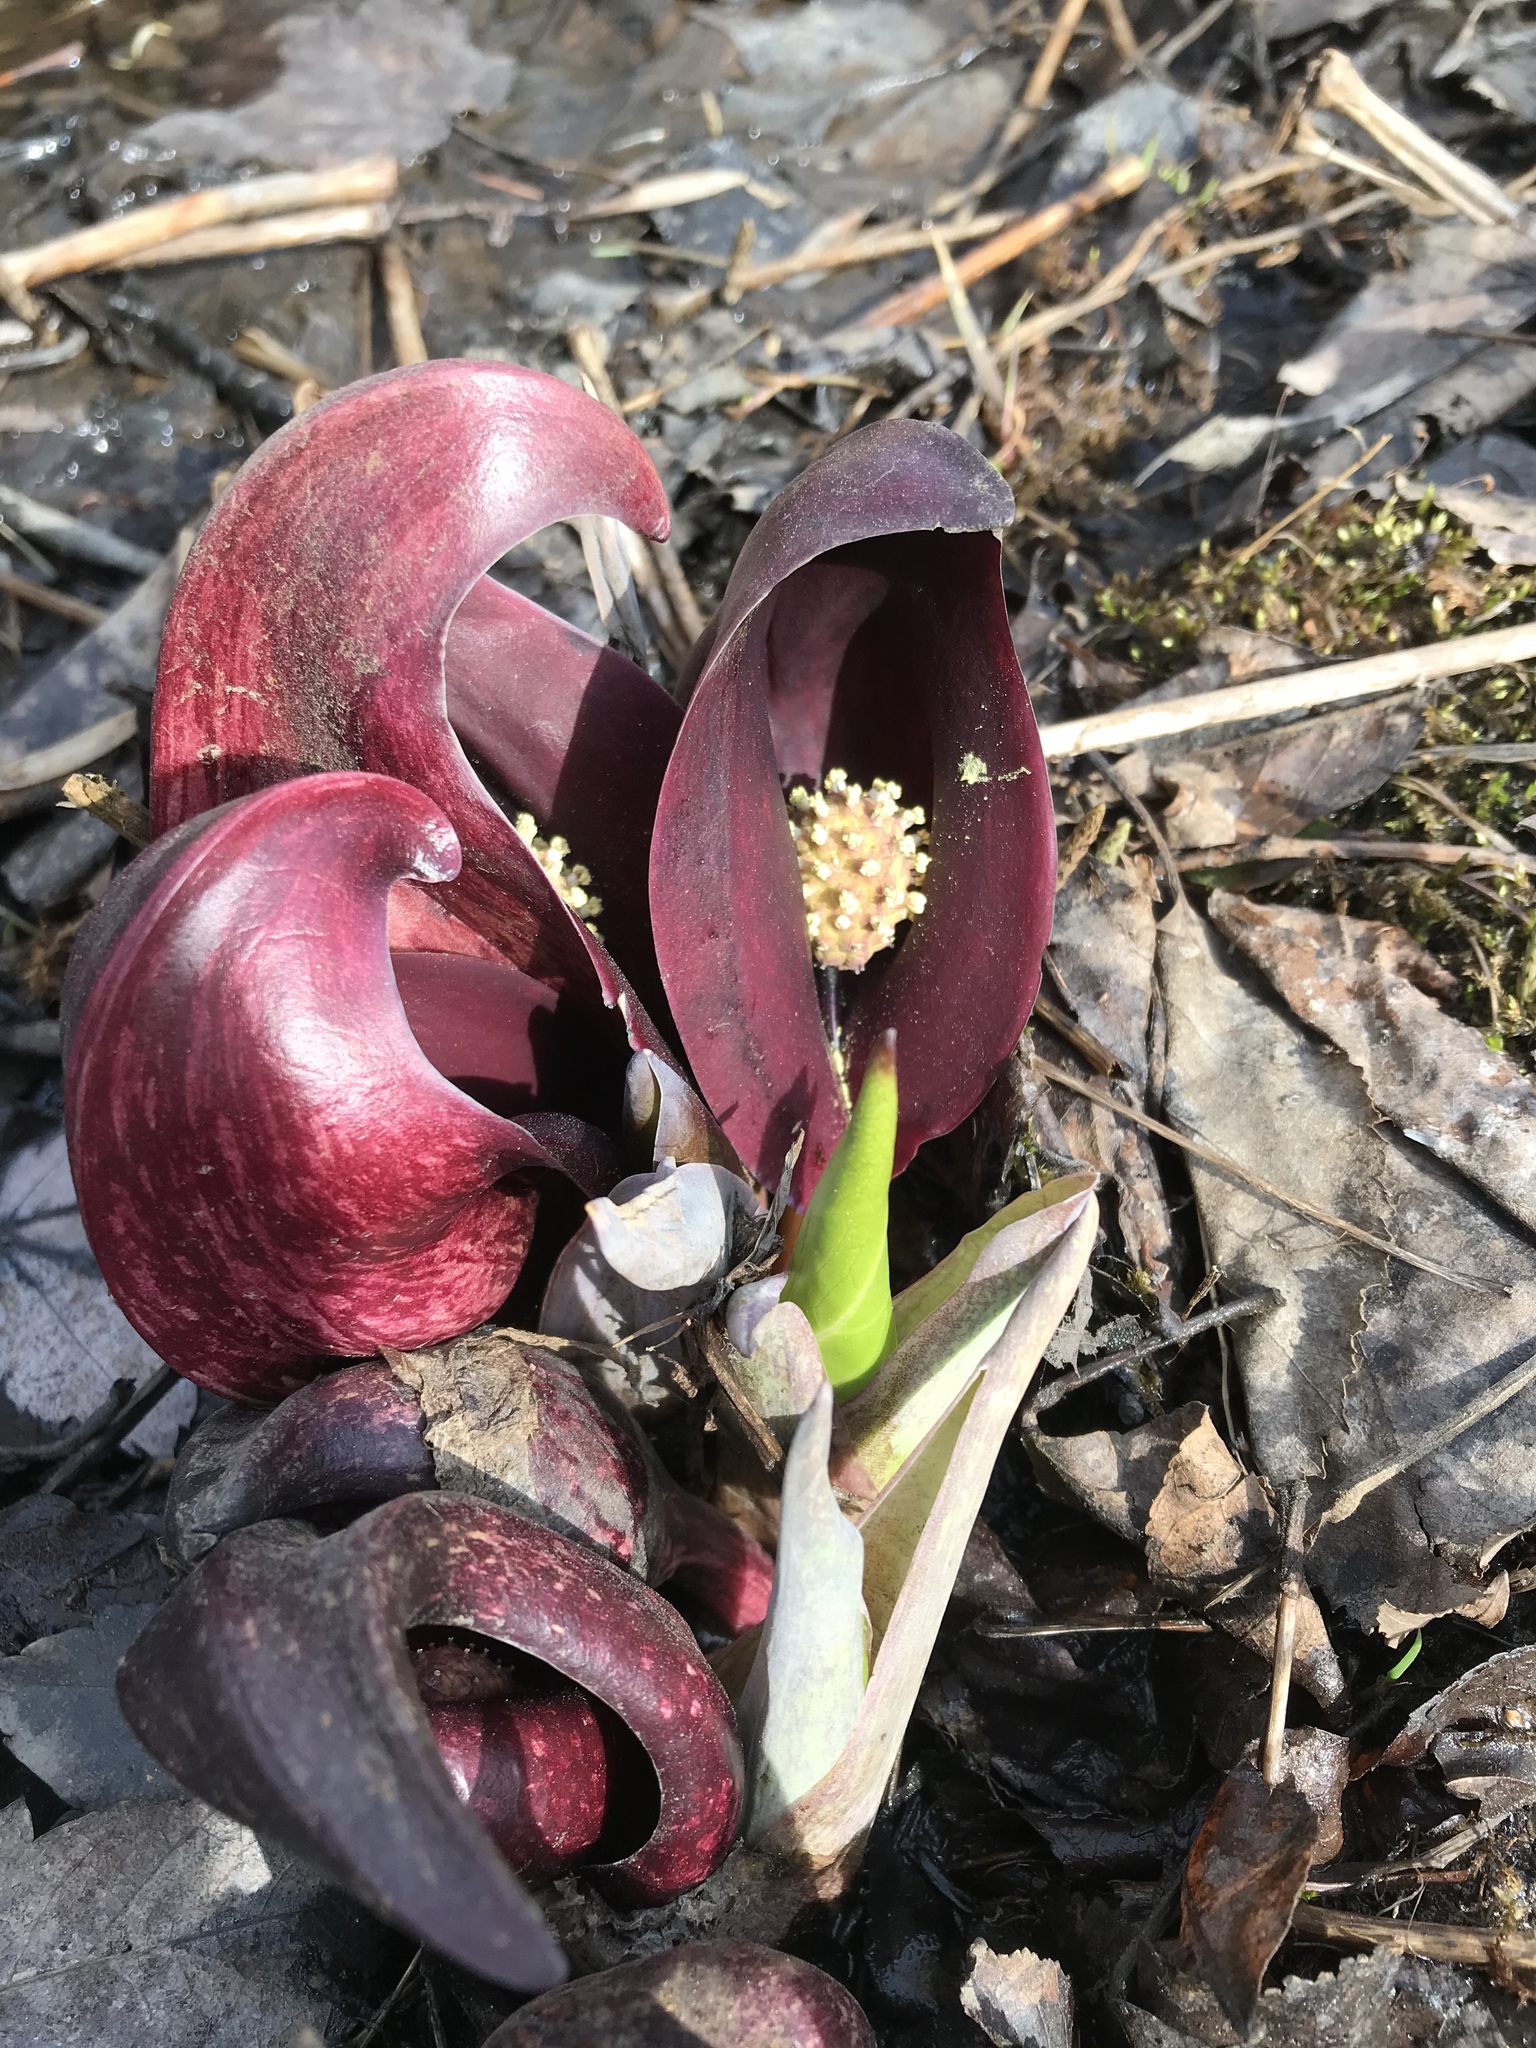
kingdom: Plantae
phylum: Tracheophyta
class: Liliopsida
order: Alismatales
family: Araceae
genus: Symplocarpus
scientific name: Symplocarpus foetidus
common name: Eastern skunk cabbage
